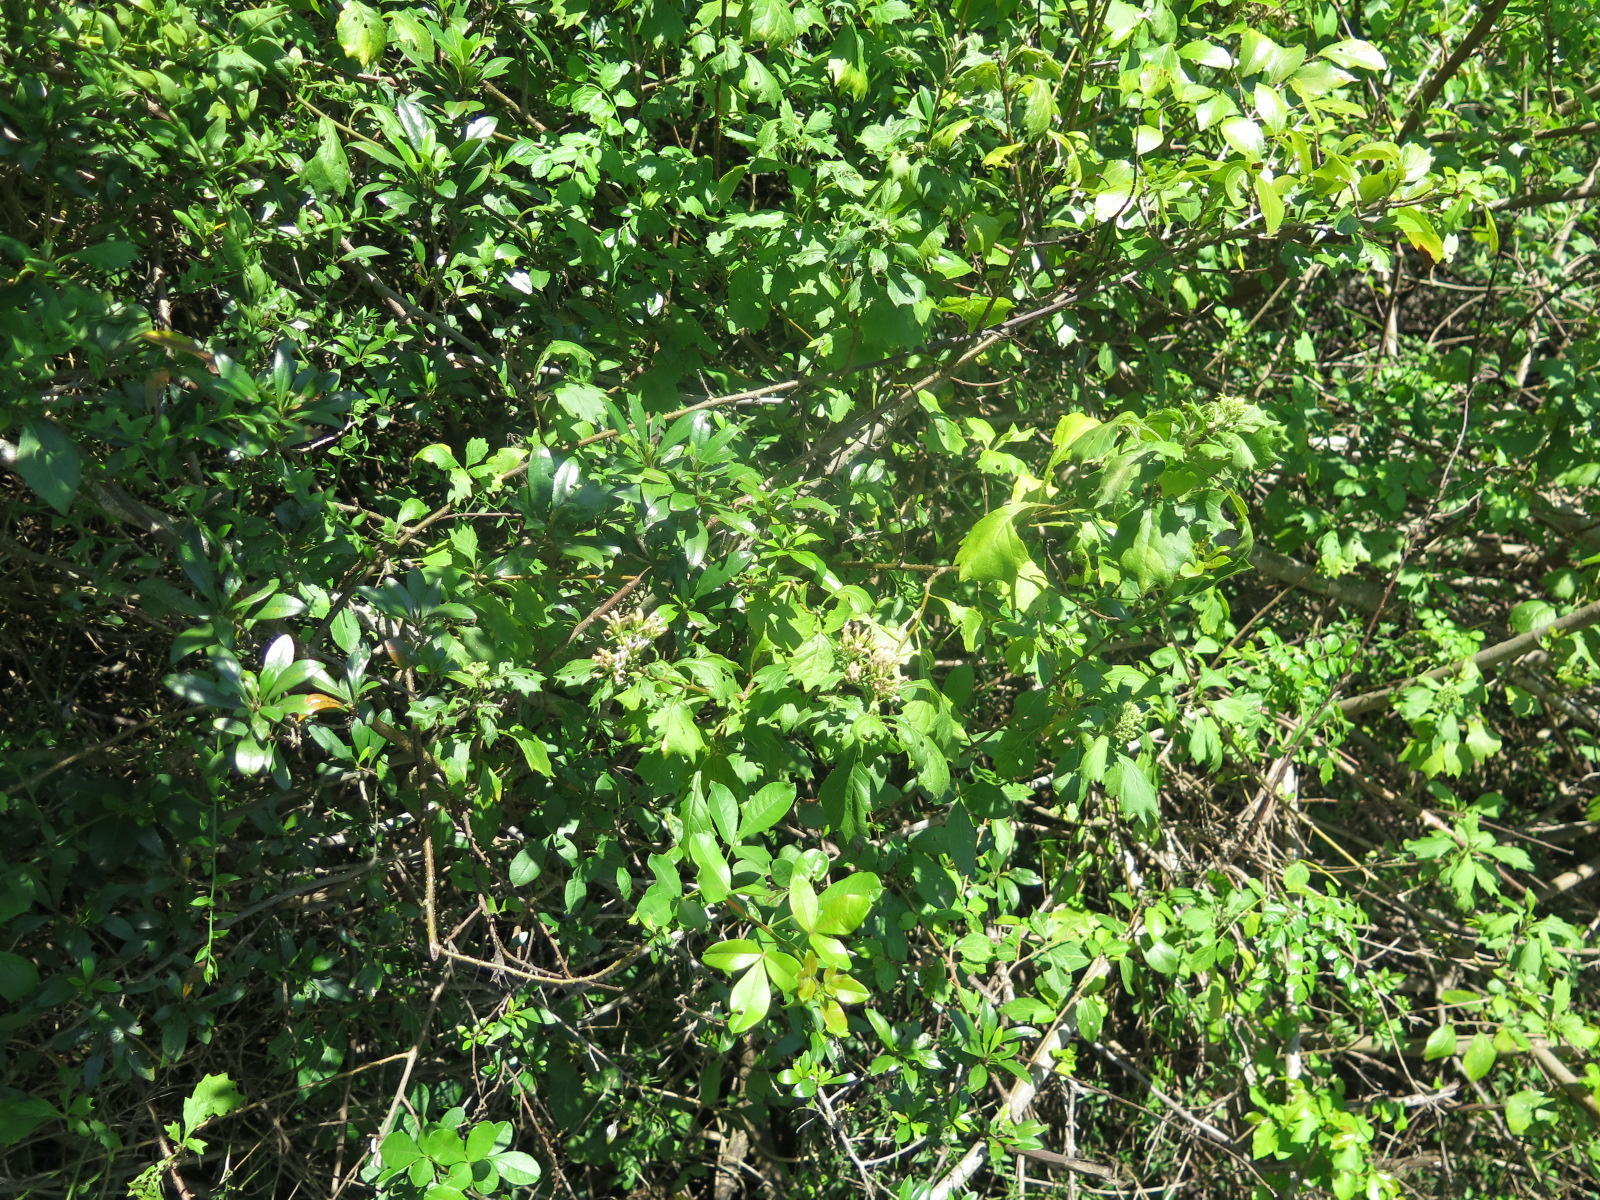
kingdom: Plantae
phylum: Tracheophyta
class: Magnoliopsida
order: Asterales
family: Asteraceae
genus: Gymnanthemum
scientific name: Gymnanthemum capense
